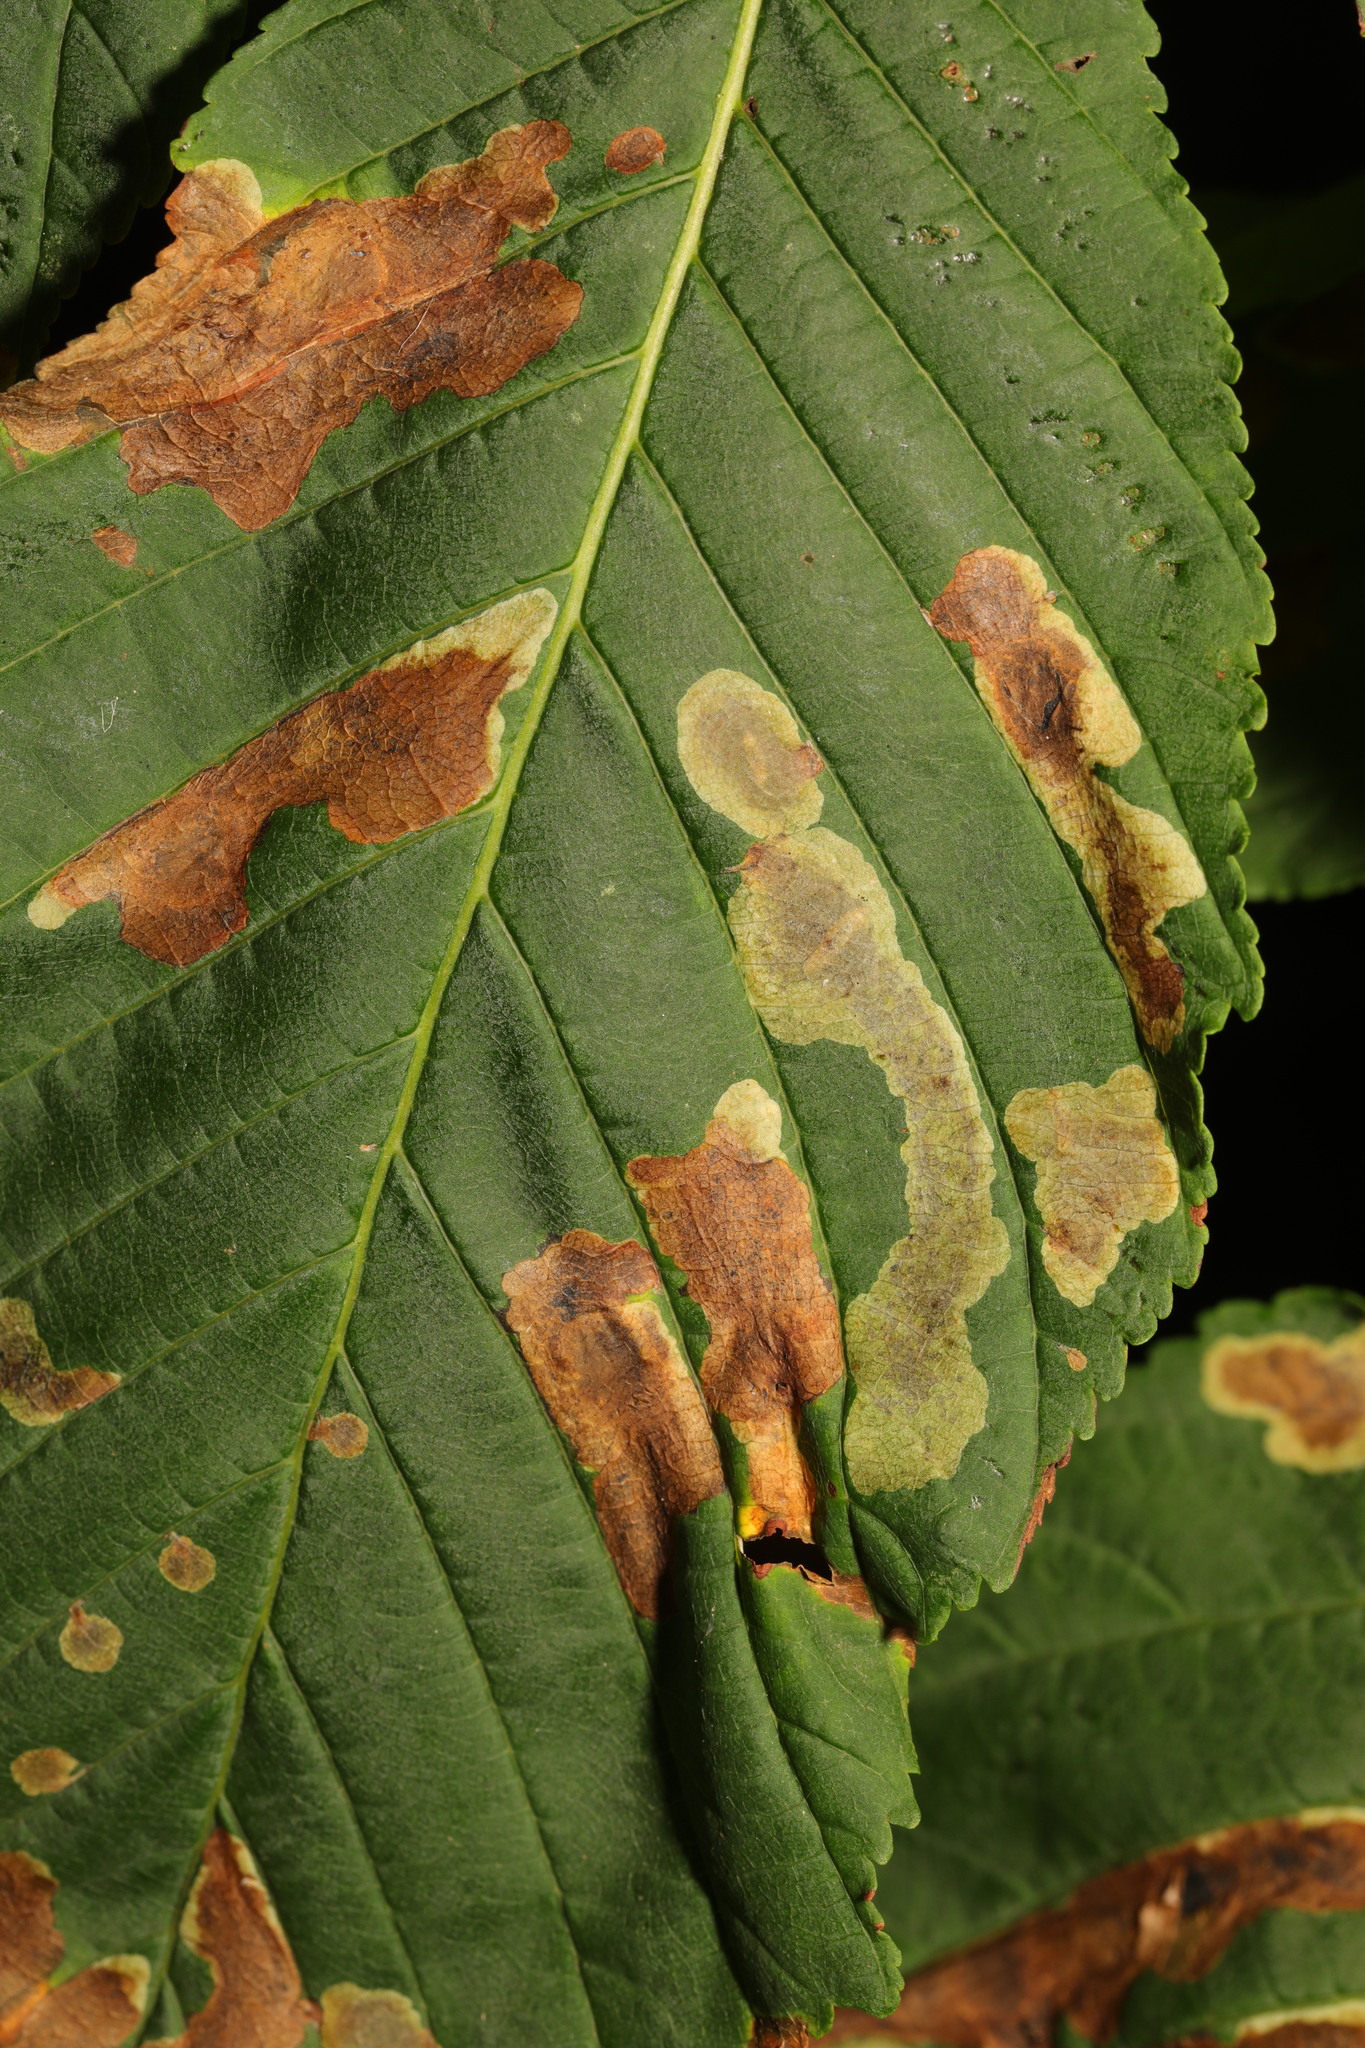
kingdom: Animalia
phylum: Arthropoda
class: Insecta
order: Lepidoptera
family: Gracillariidae
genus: Cameraria
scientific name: Cameraria ohridella
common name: Horse-chestnut leaf-miner
